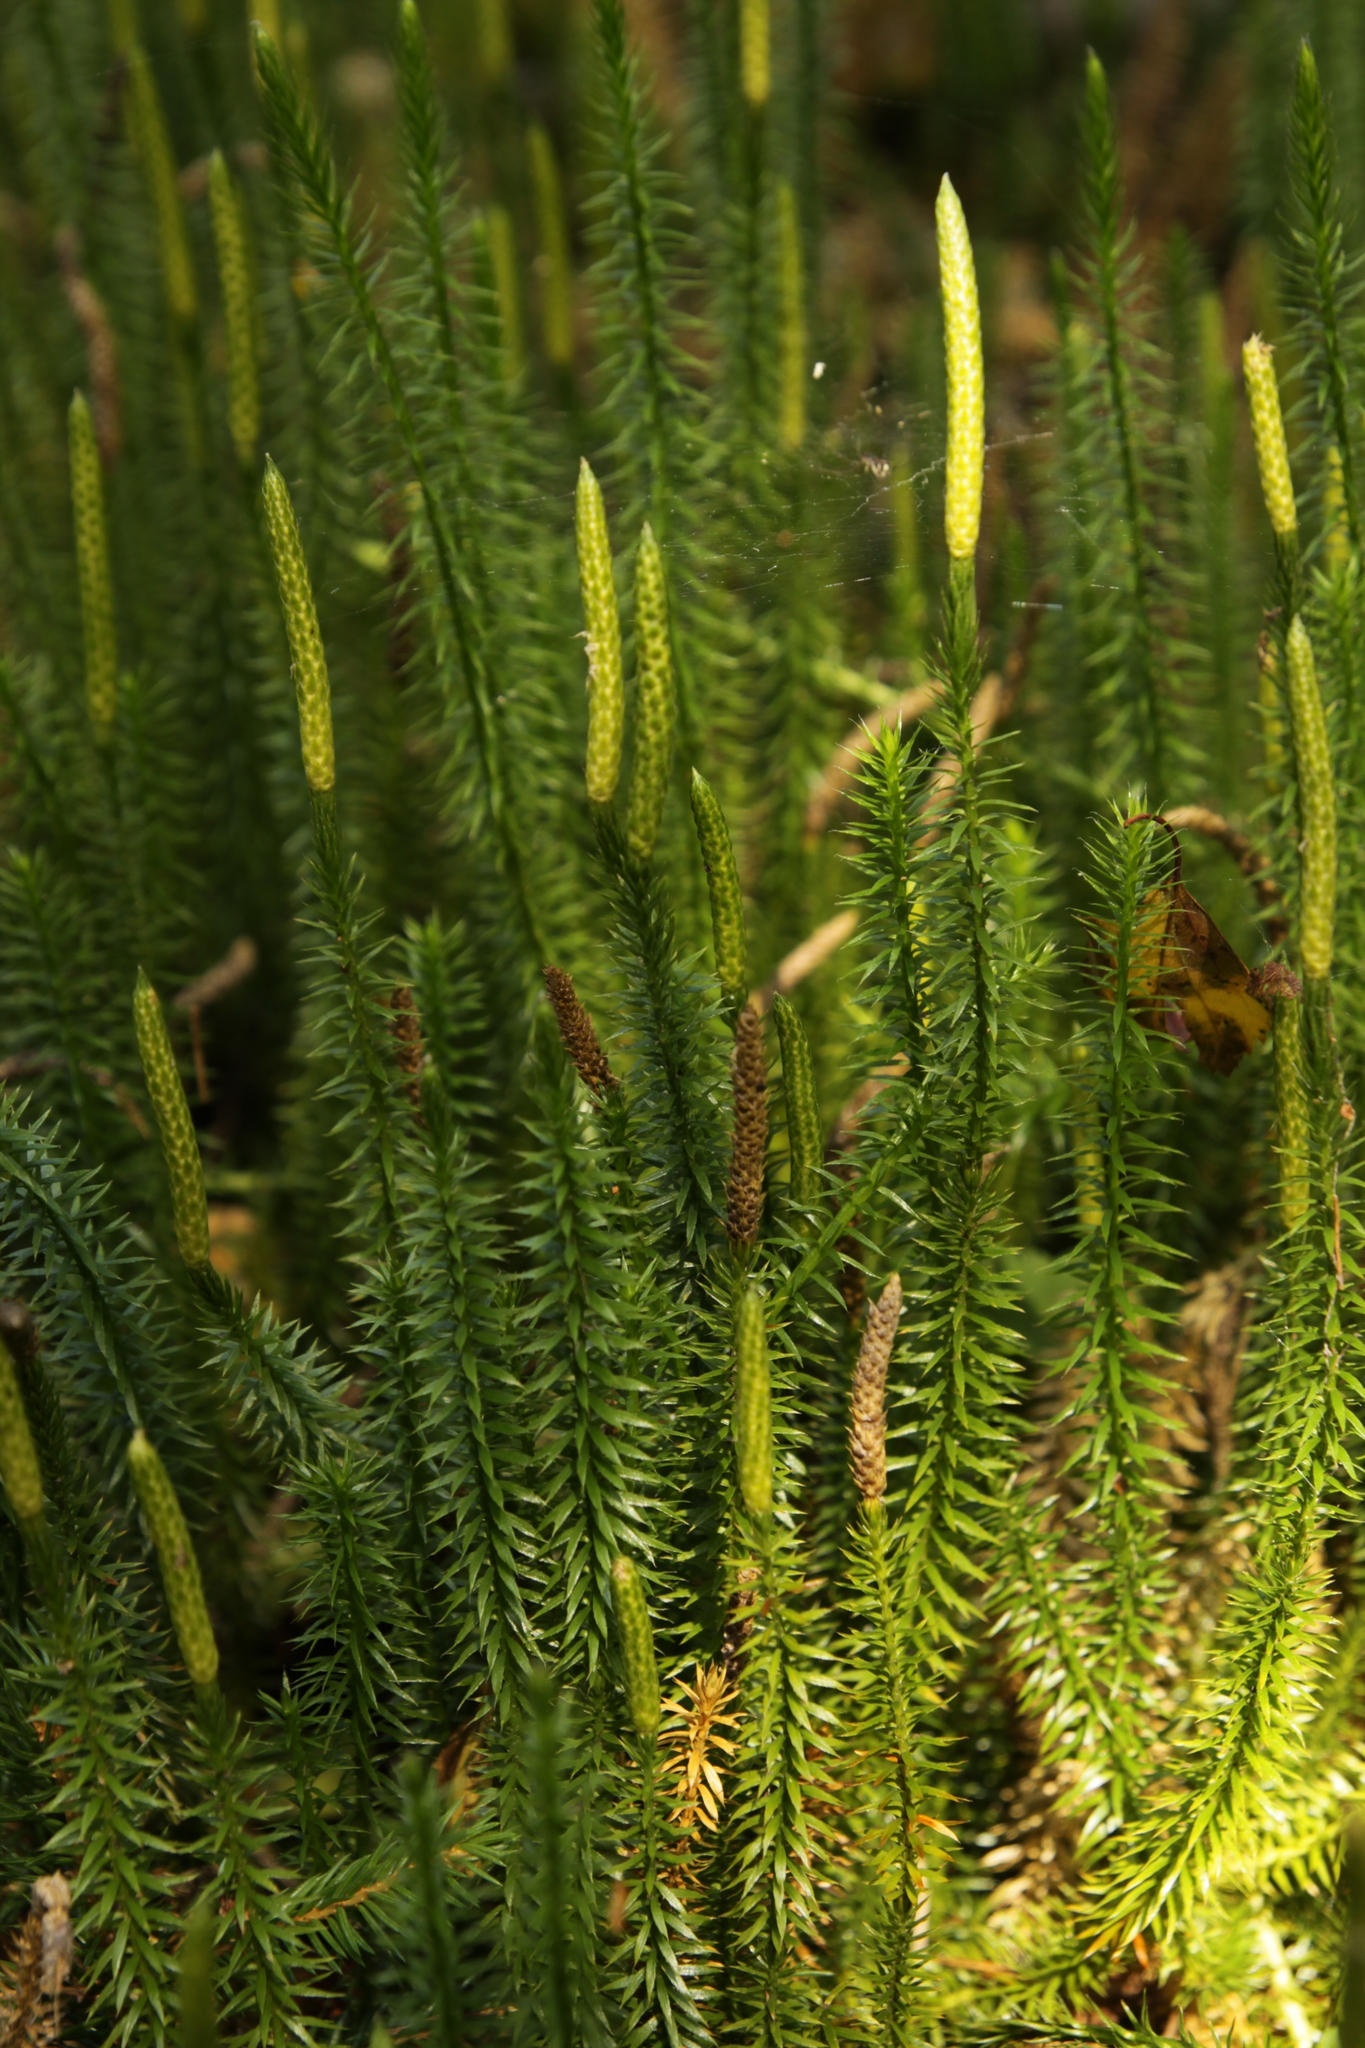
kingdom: Plantae
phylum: Tracheophyta
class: Lycopodiopsida
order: Lycopodiales
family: Lycopodiaceae
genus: Spinulum
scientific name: Spinulum annotinum
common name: Interrupted club-moss
